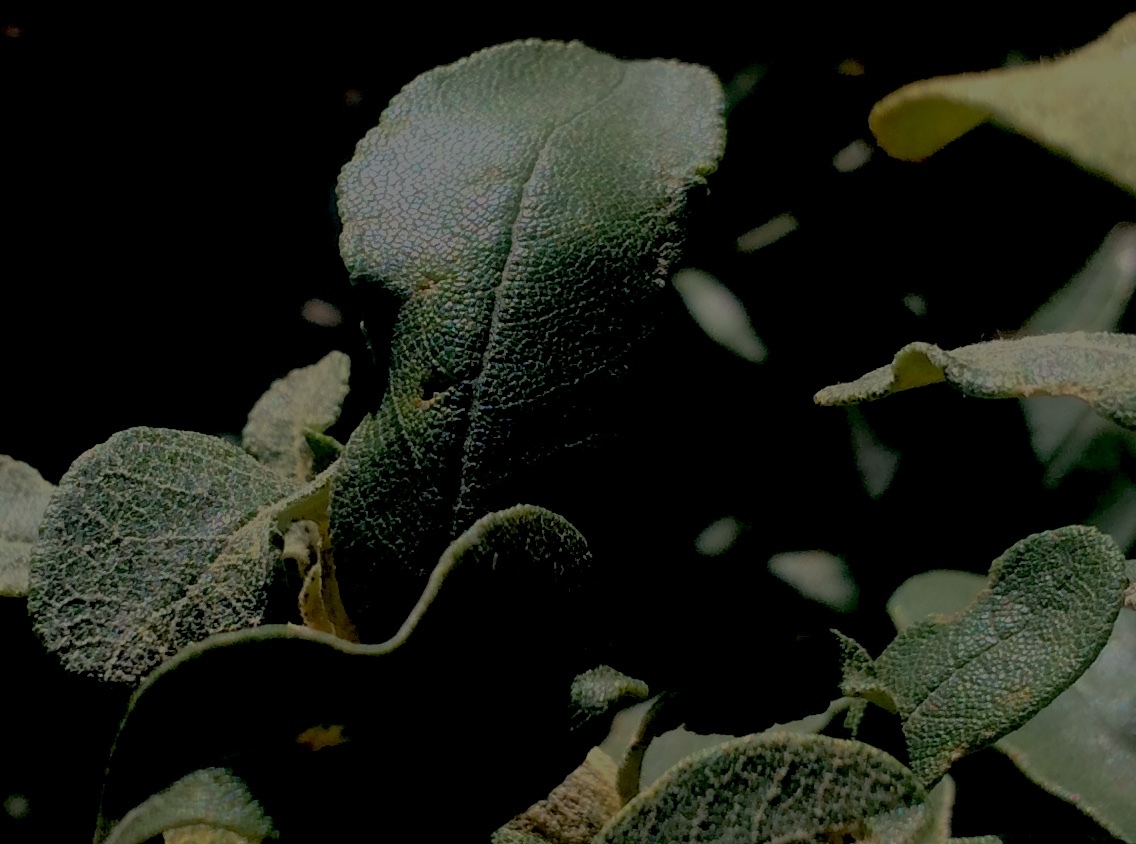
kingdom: Plantae
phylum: Tracheophyta
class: Magnoliopsida
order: Asterales
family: Asteraceae
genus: Tarchonanthus
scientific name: Tarchonanthus littoralis
